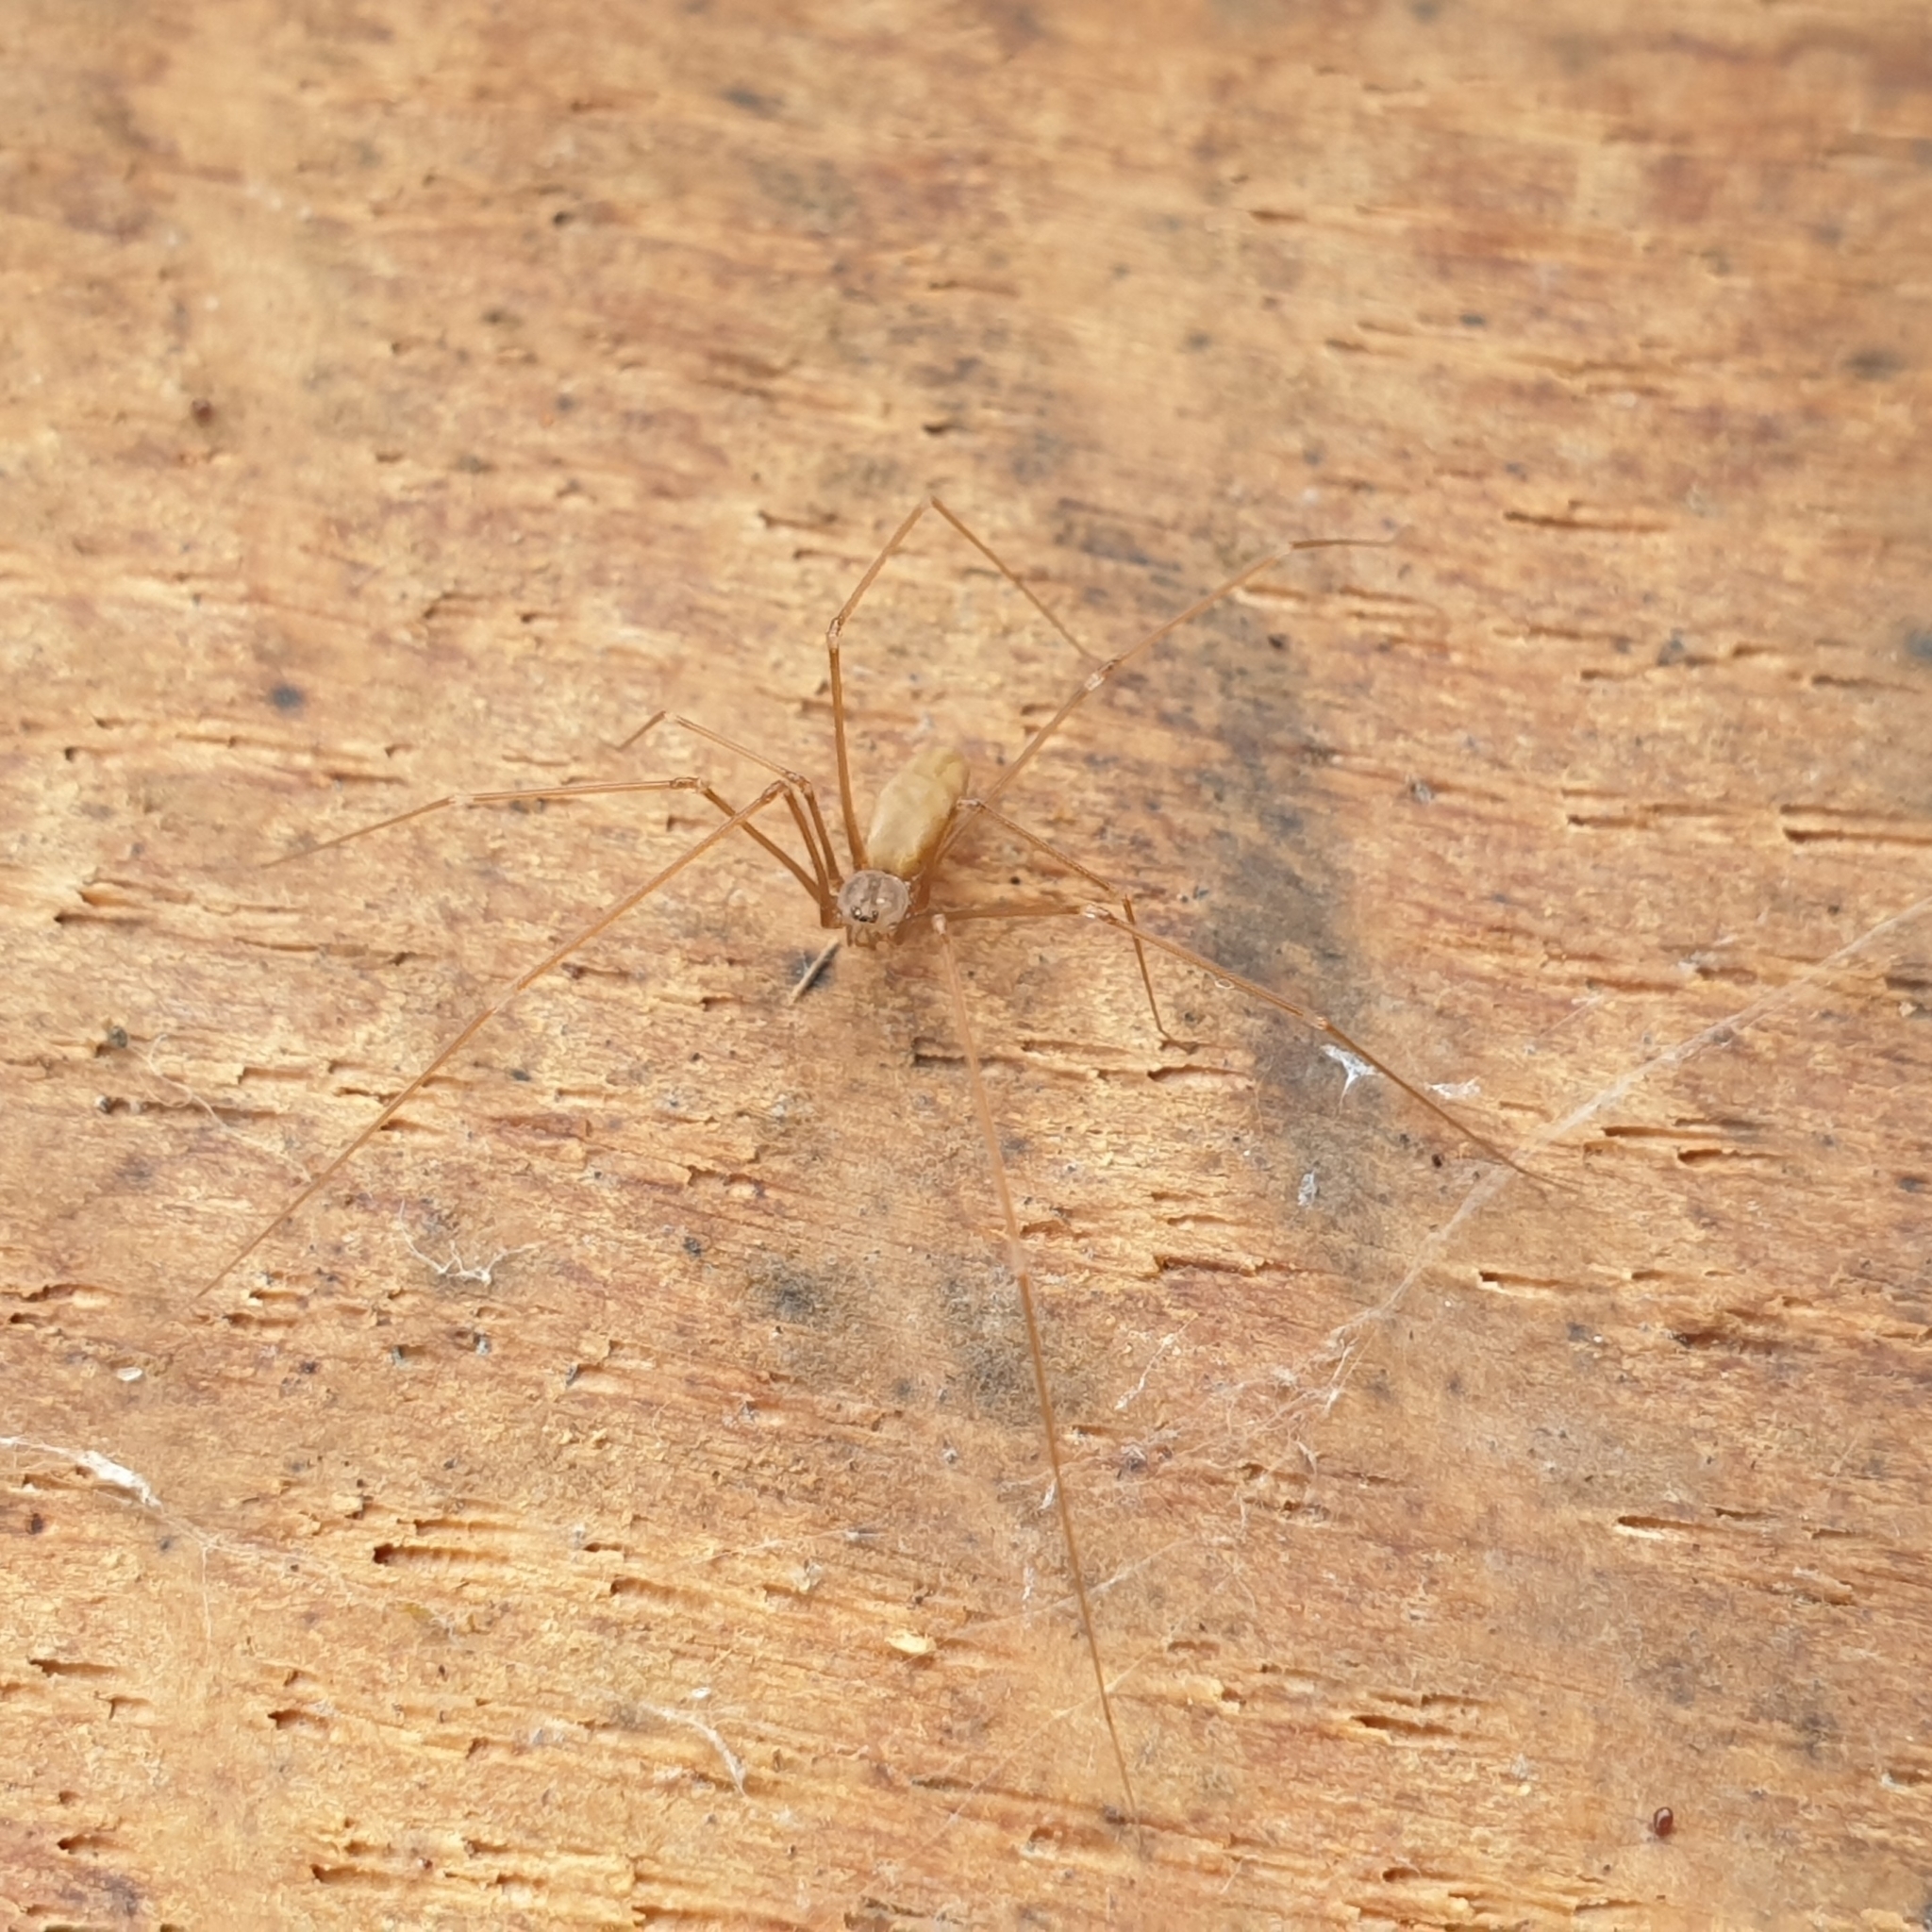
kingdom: Animalia
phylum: Arthropoda
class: Arachnida
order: Araneae
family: Pholcidae
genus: Pholcus
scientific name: Pholcus opilionoides
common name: Daddylongleg spider
